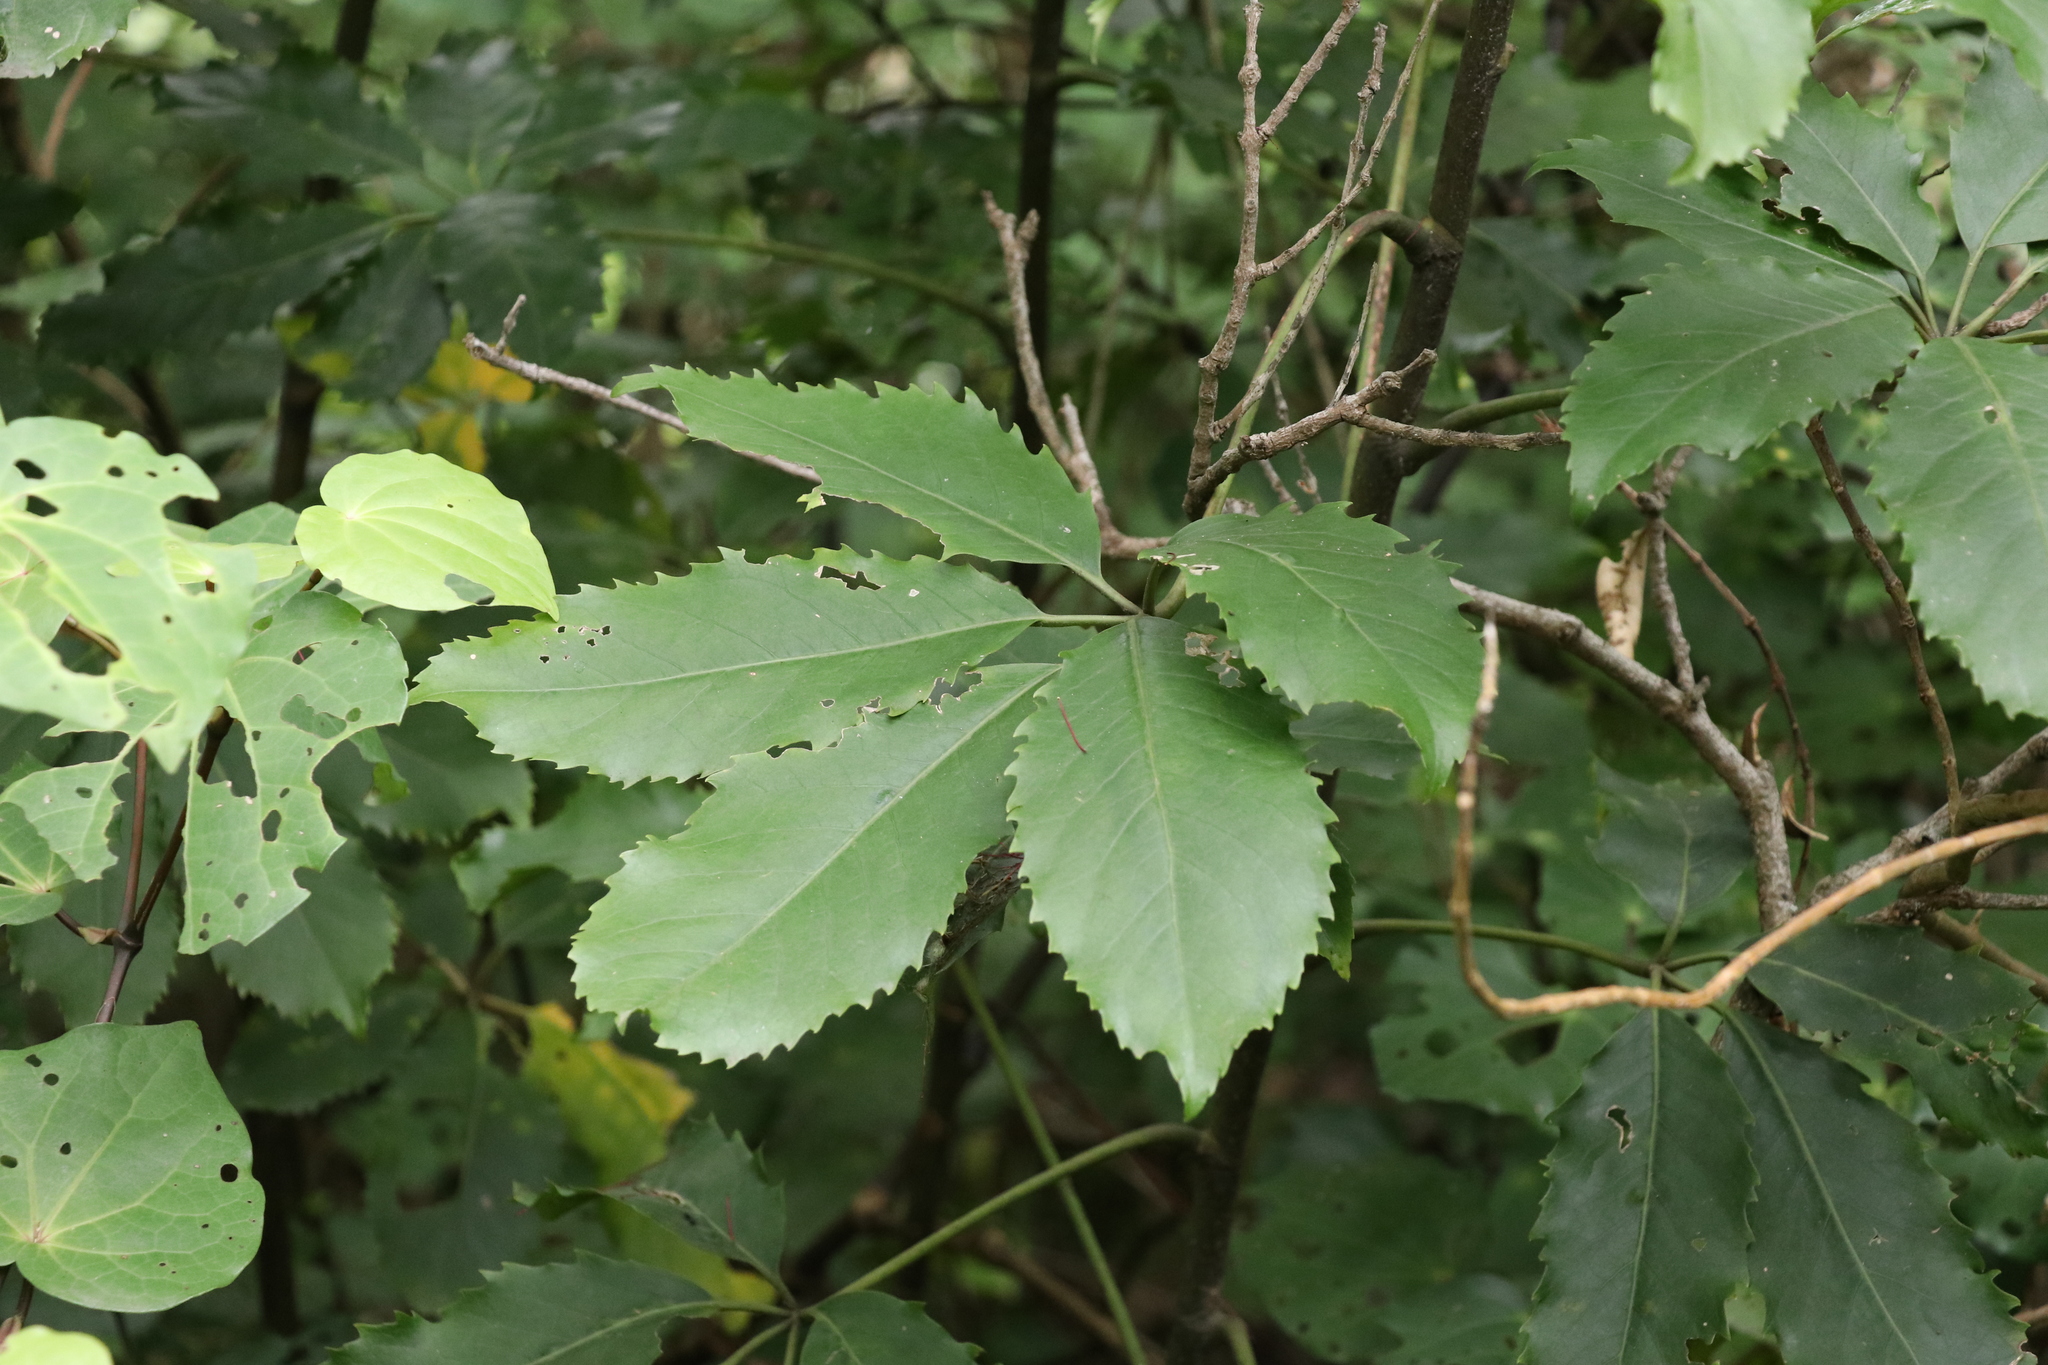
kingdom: Plantae
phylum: Tracheophyta
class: Magnoliopsida
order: Apiales
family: Araliaceae
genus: Neopanax
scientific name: Neopanax arboreus
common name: Five-fingers
